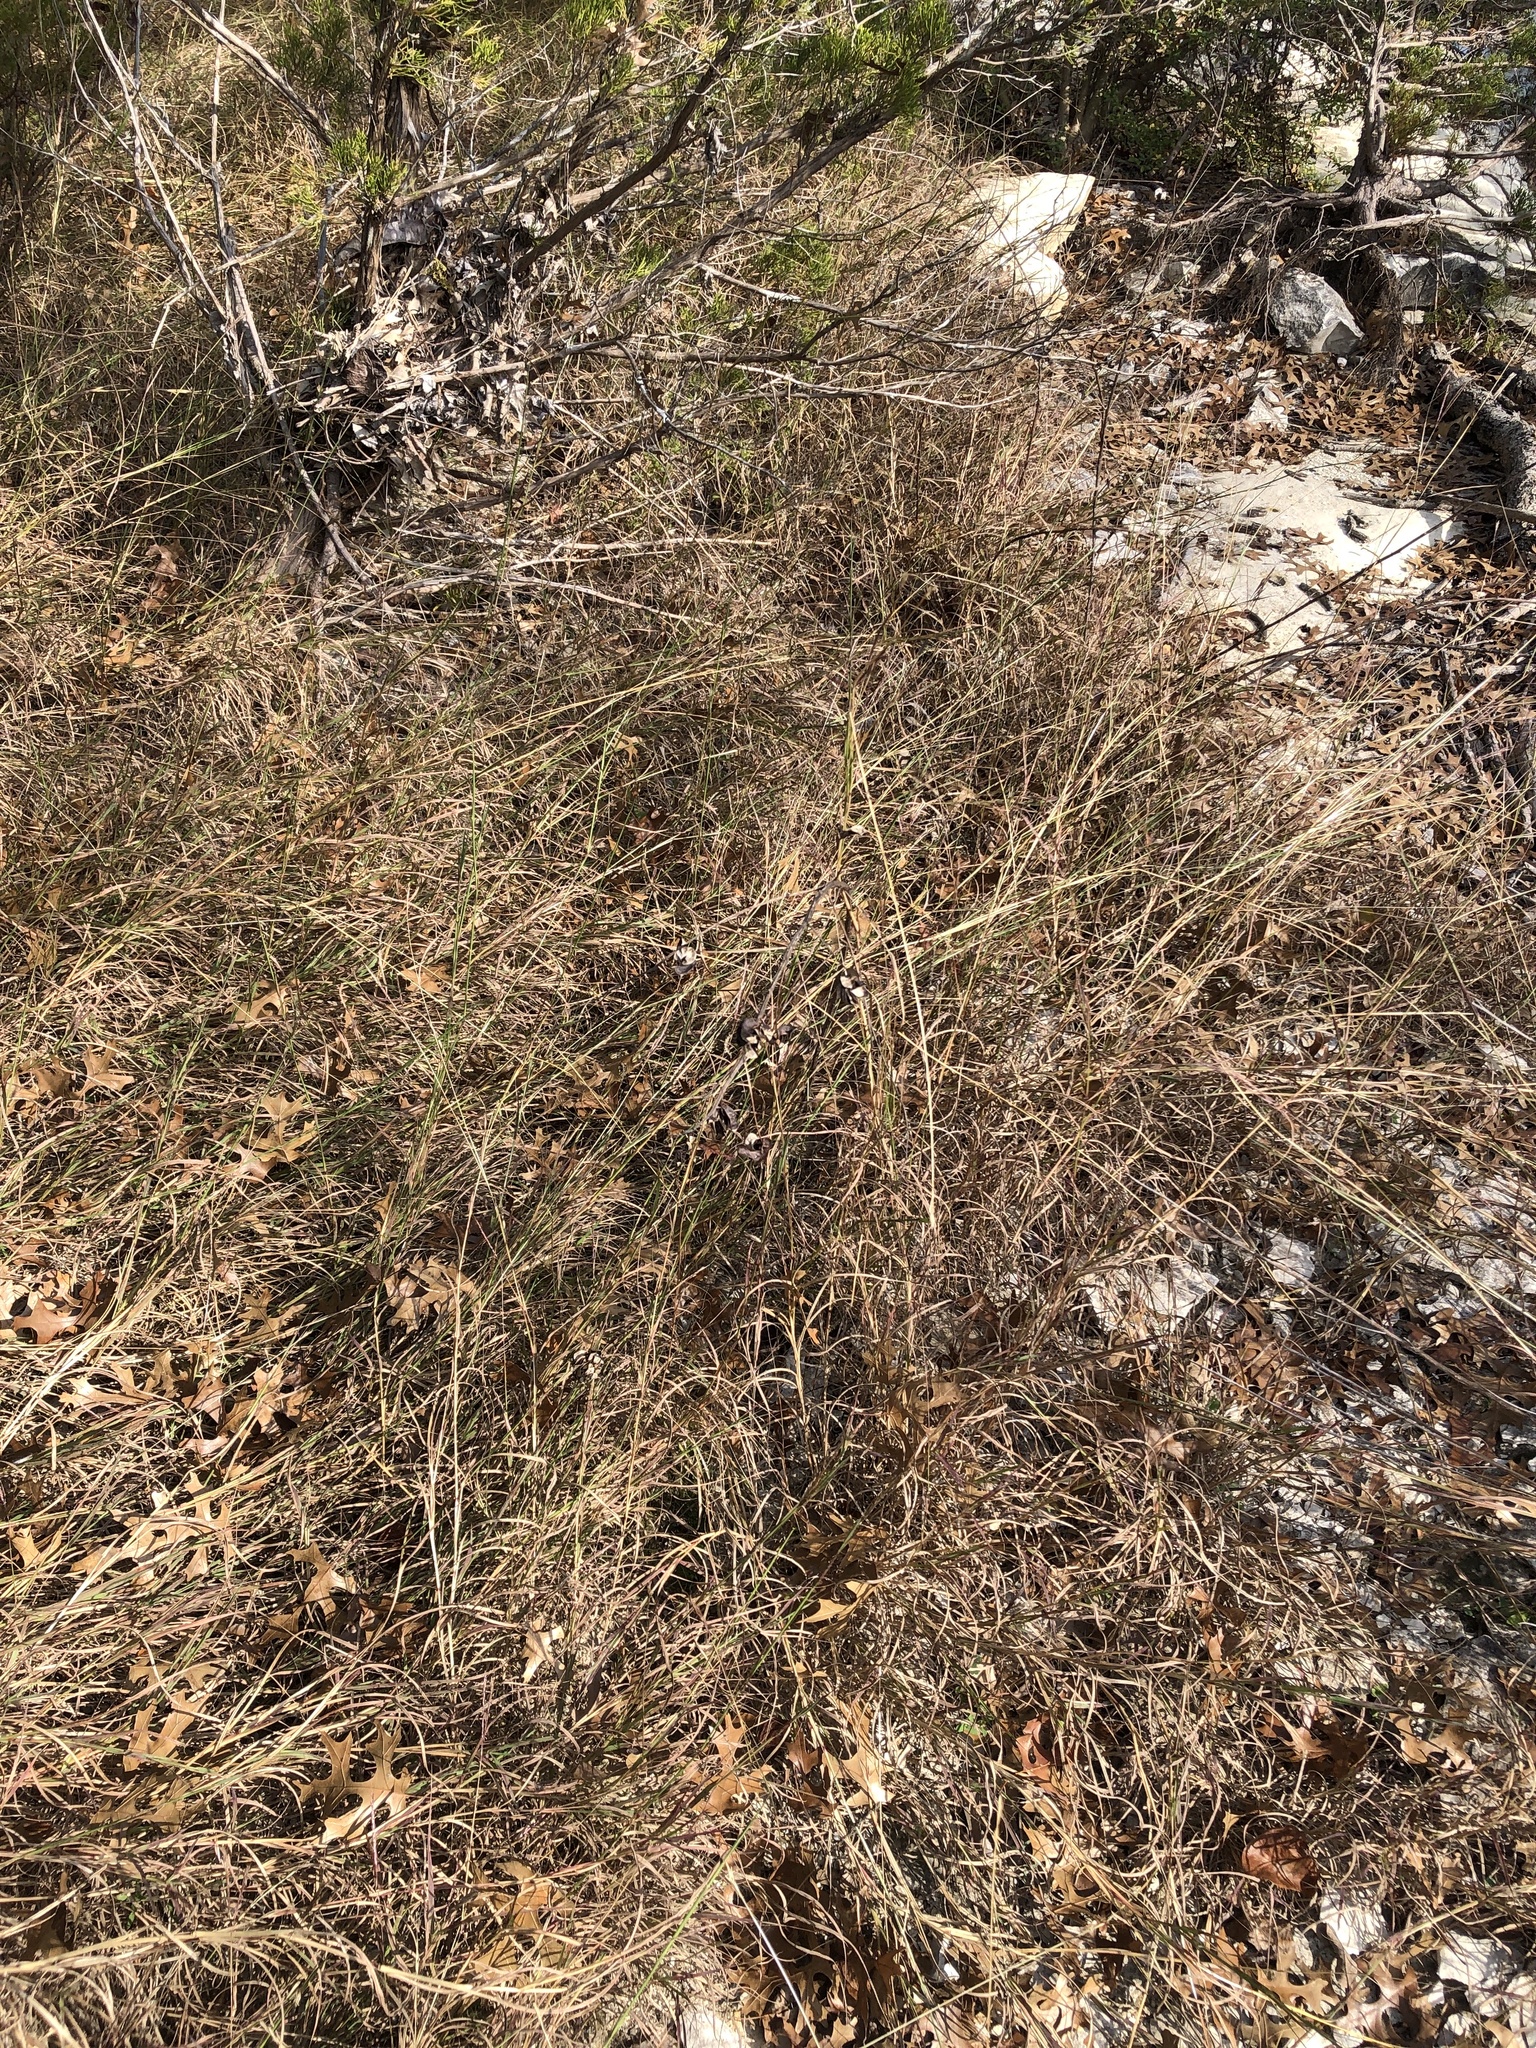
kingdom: Plantae
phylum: Tracheophyta
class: Magnoliopsida
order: Fabales
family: Fabaceae
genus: Desmanthus
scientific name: Desmanthus illinoensis
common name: Illinois bundle-flower
